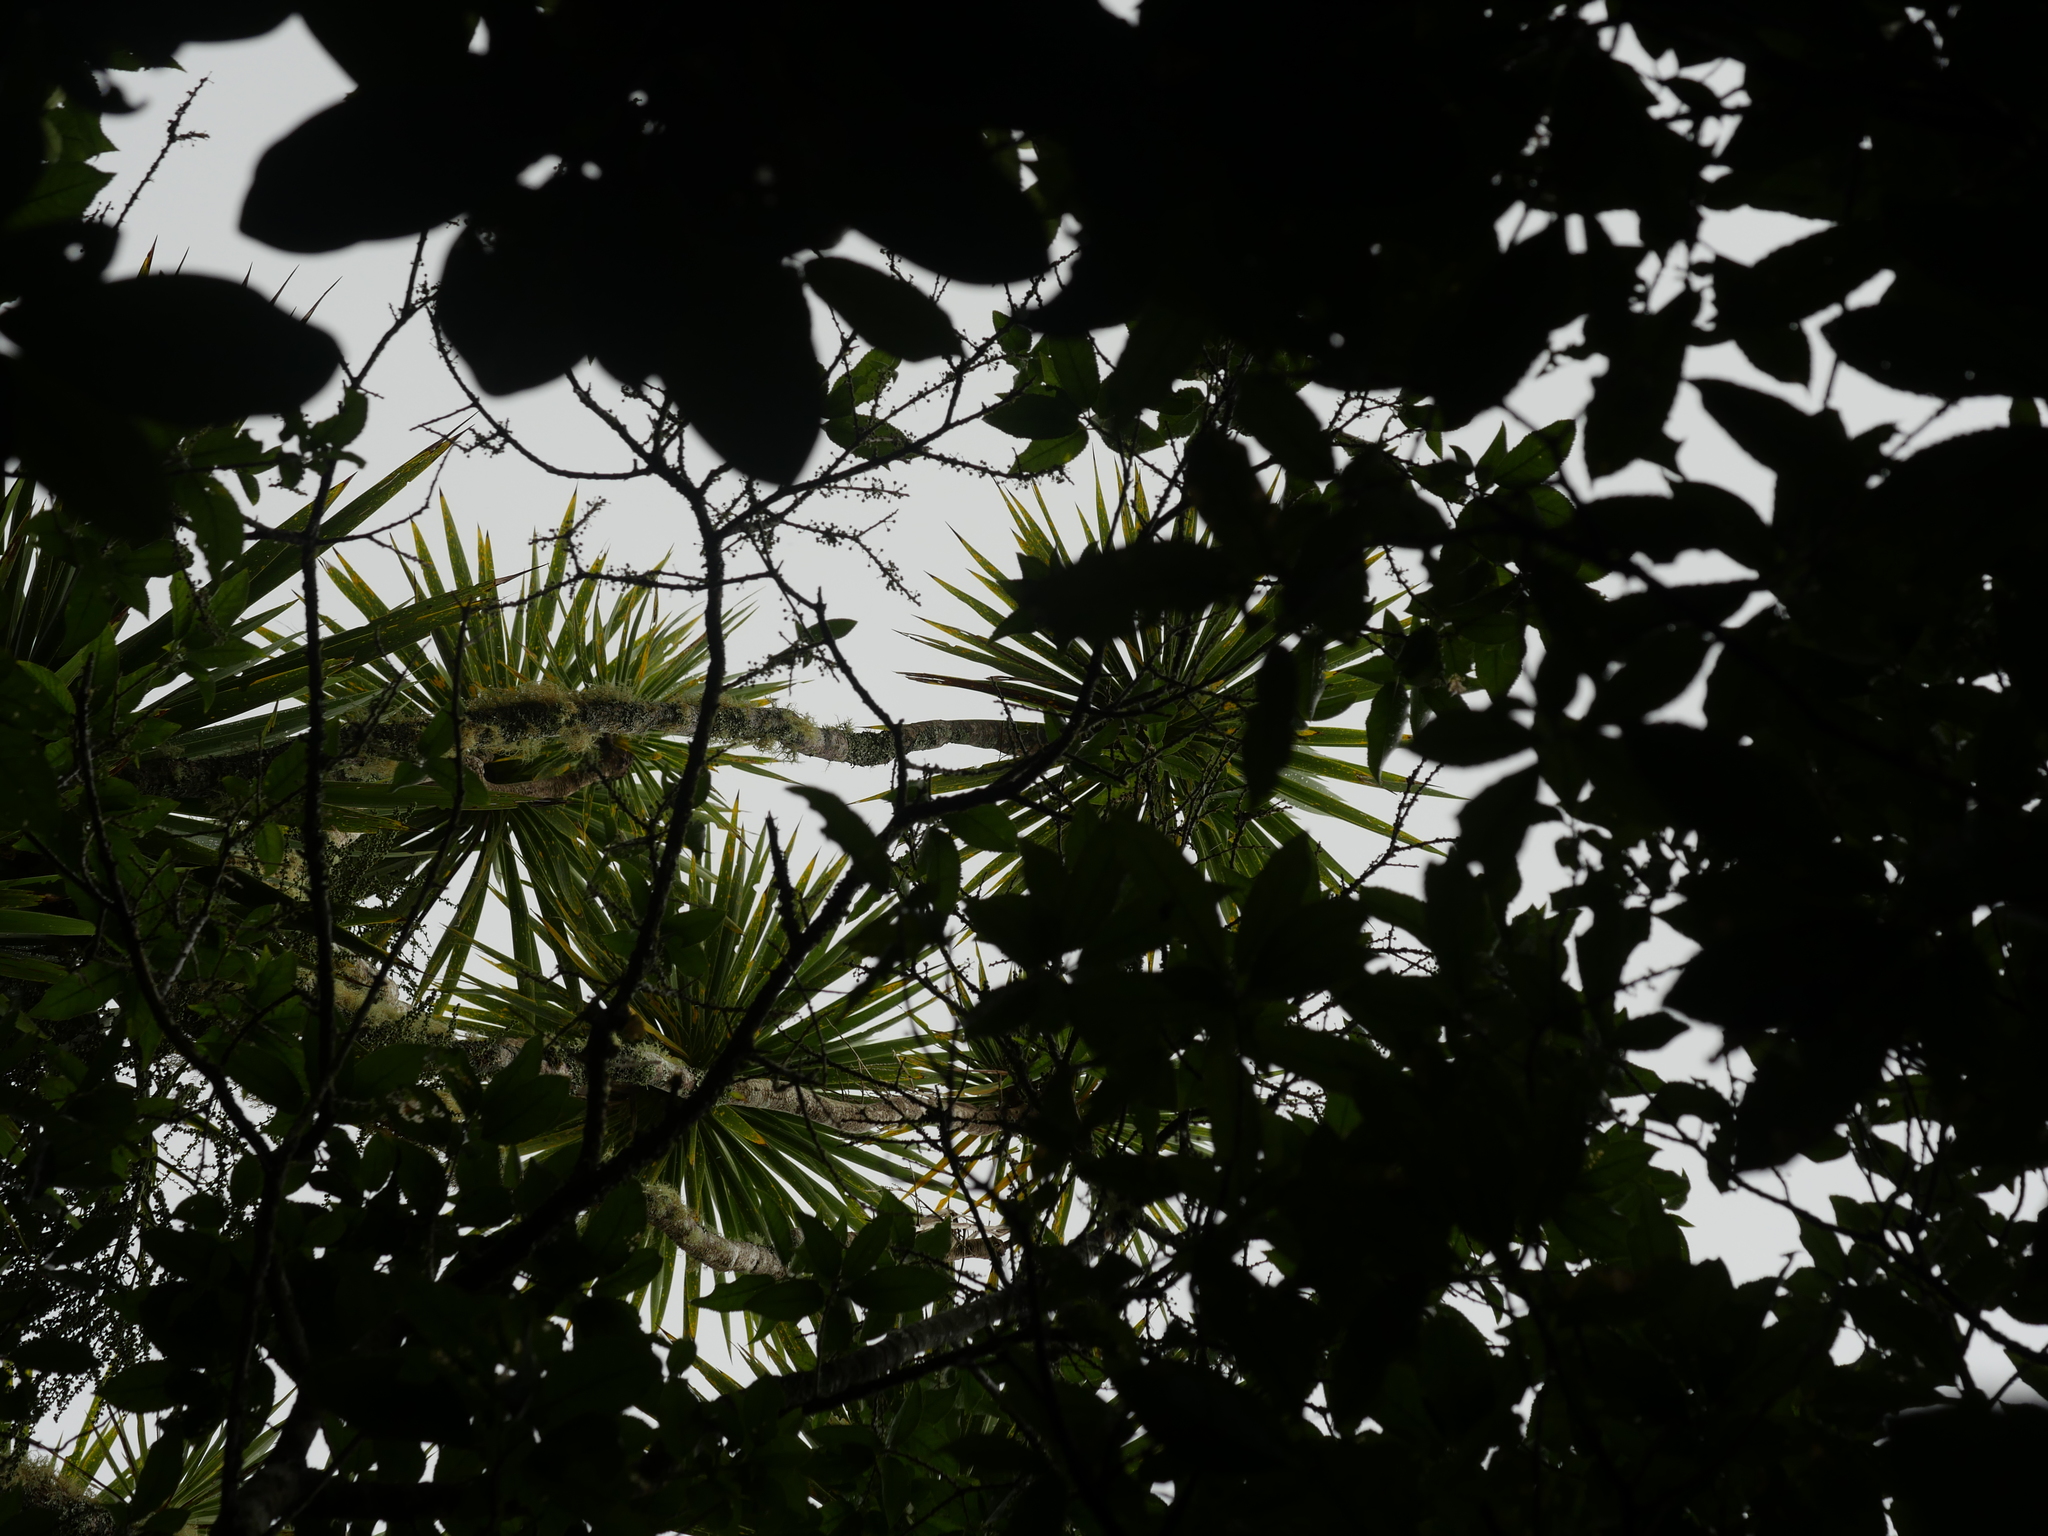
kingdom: Plantae
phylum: Tracheophyta
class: Liliopsida
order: Asparagales
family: Asparagaceae
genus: Cordyline
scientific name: Cordyline australis
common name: Cabbage-palm
